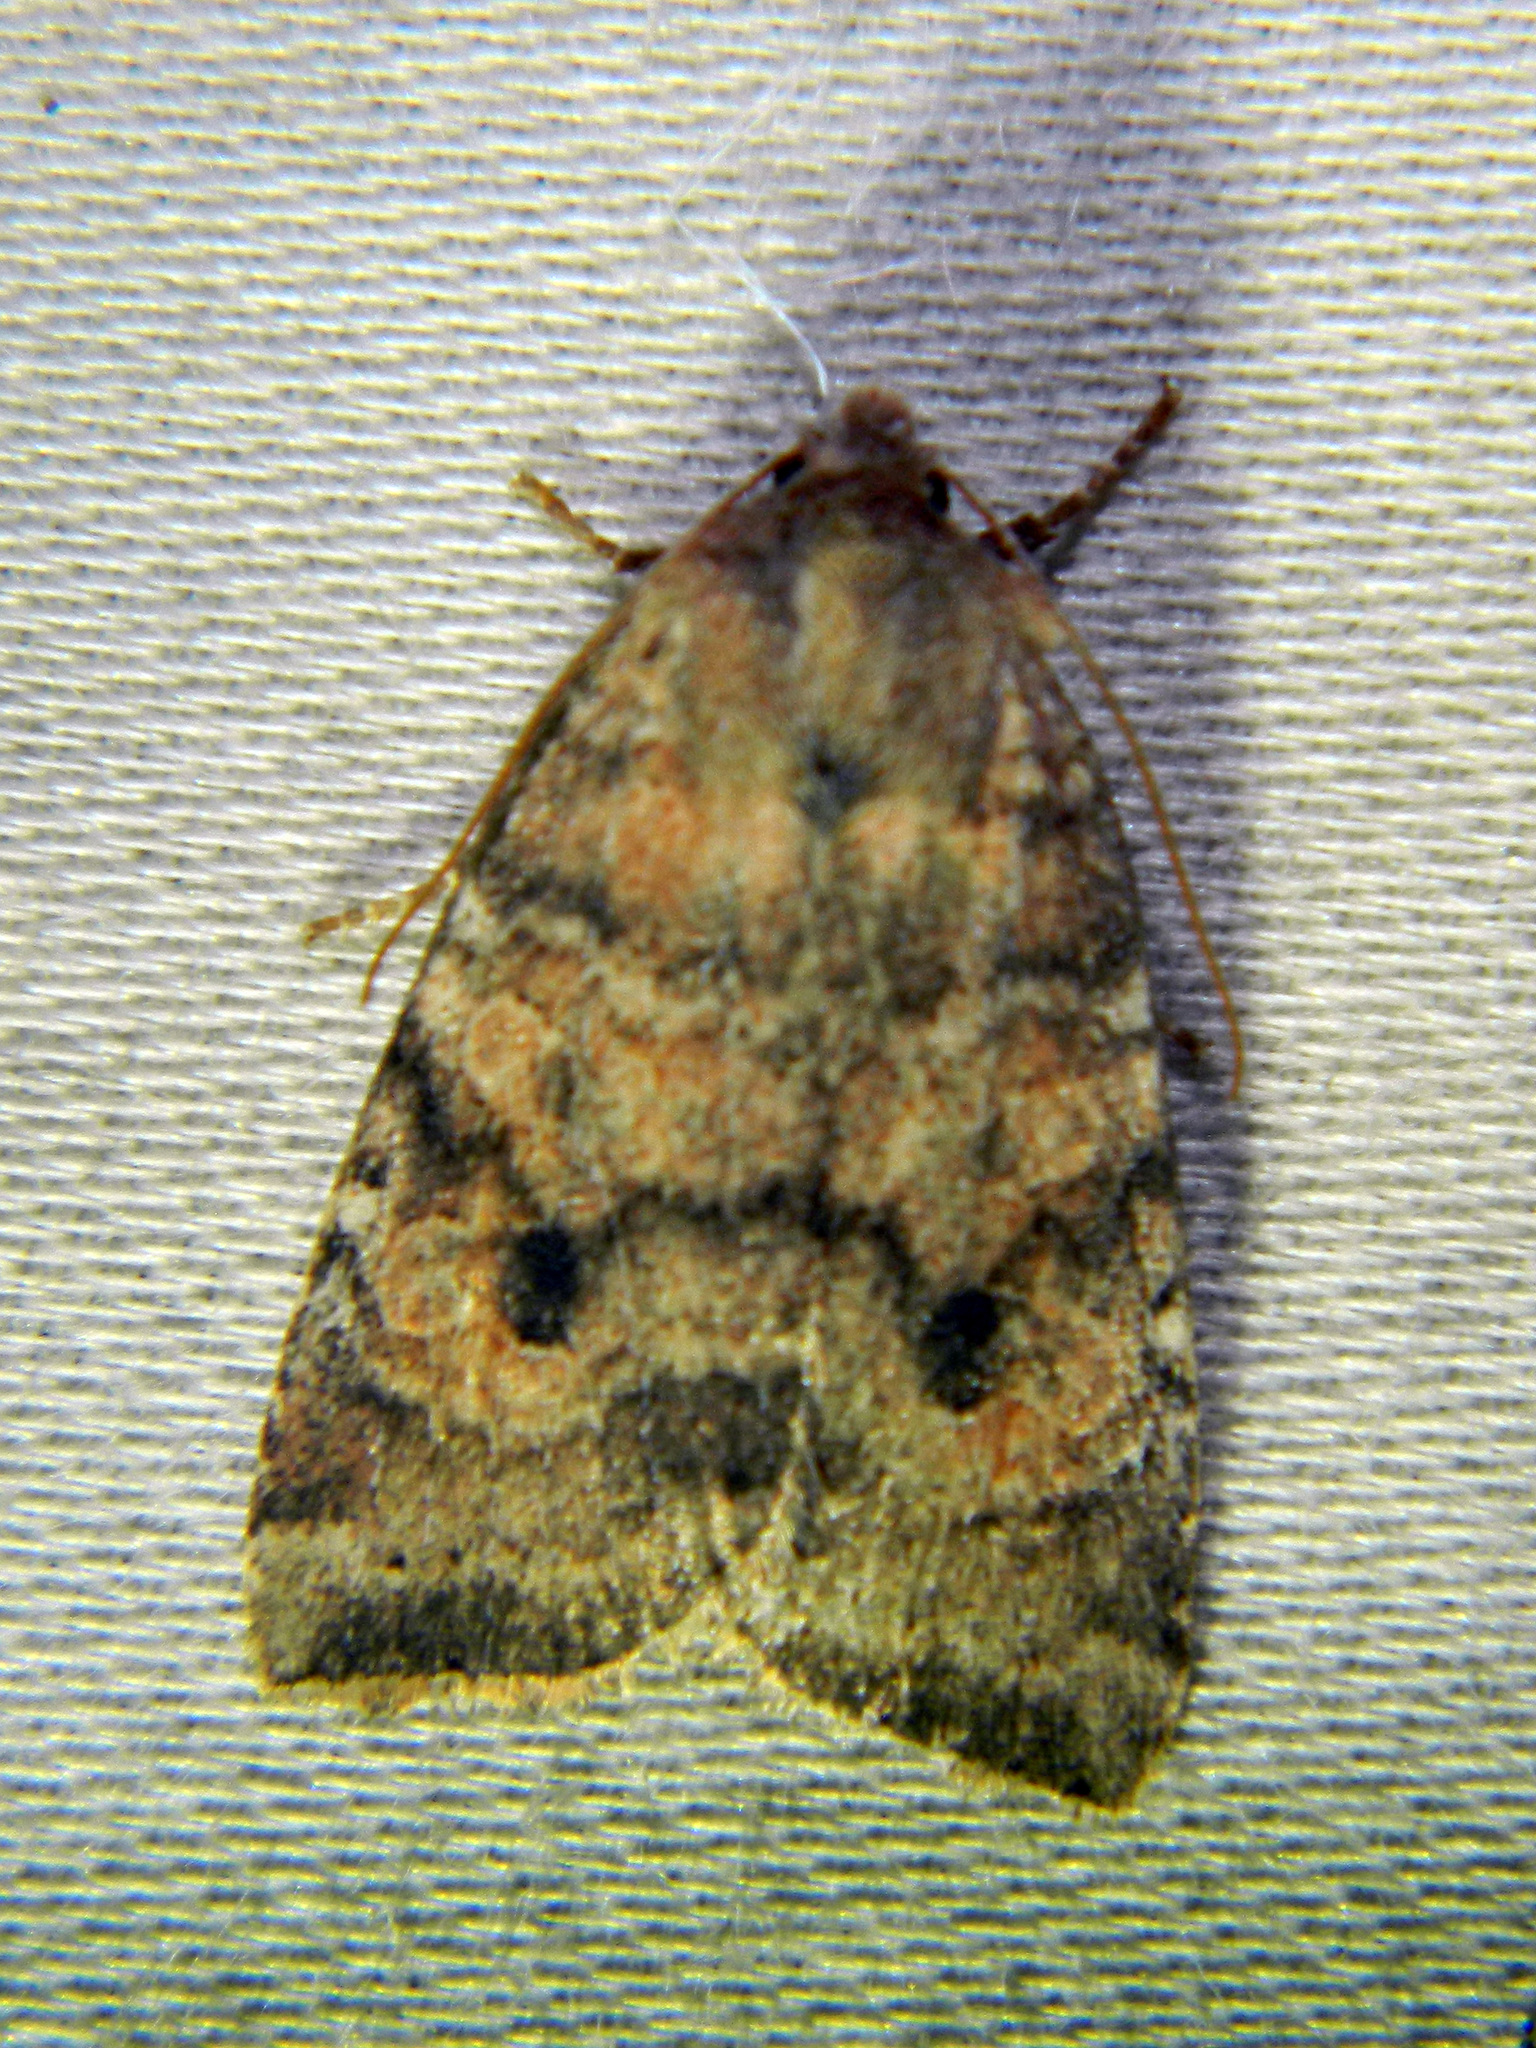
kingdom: Animalia
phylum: Arthropoda
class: Insecta
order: Lepidoptera
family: Noctuidae
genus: Anathix
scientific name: Anathix puta
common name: Puta sallow
